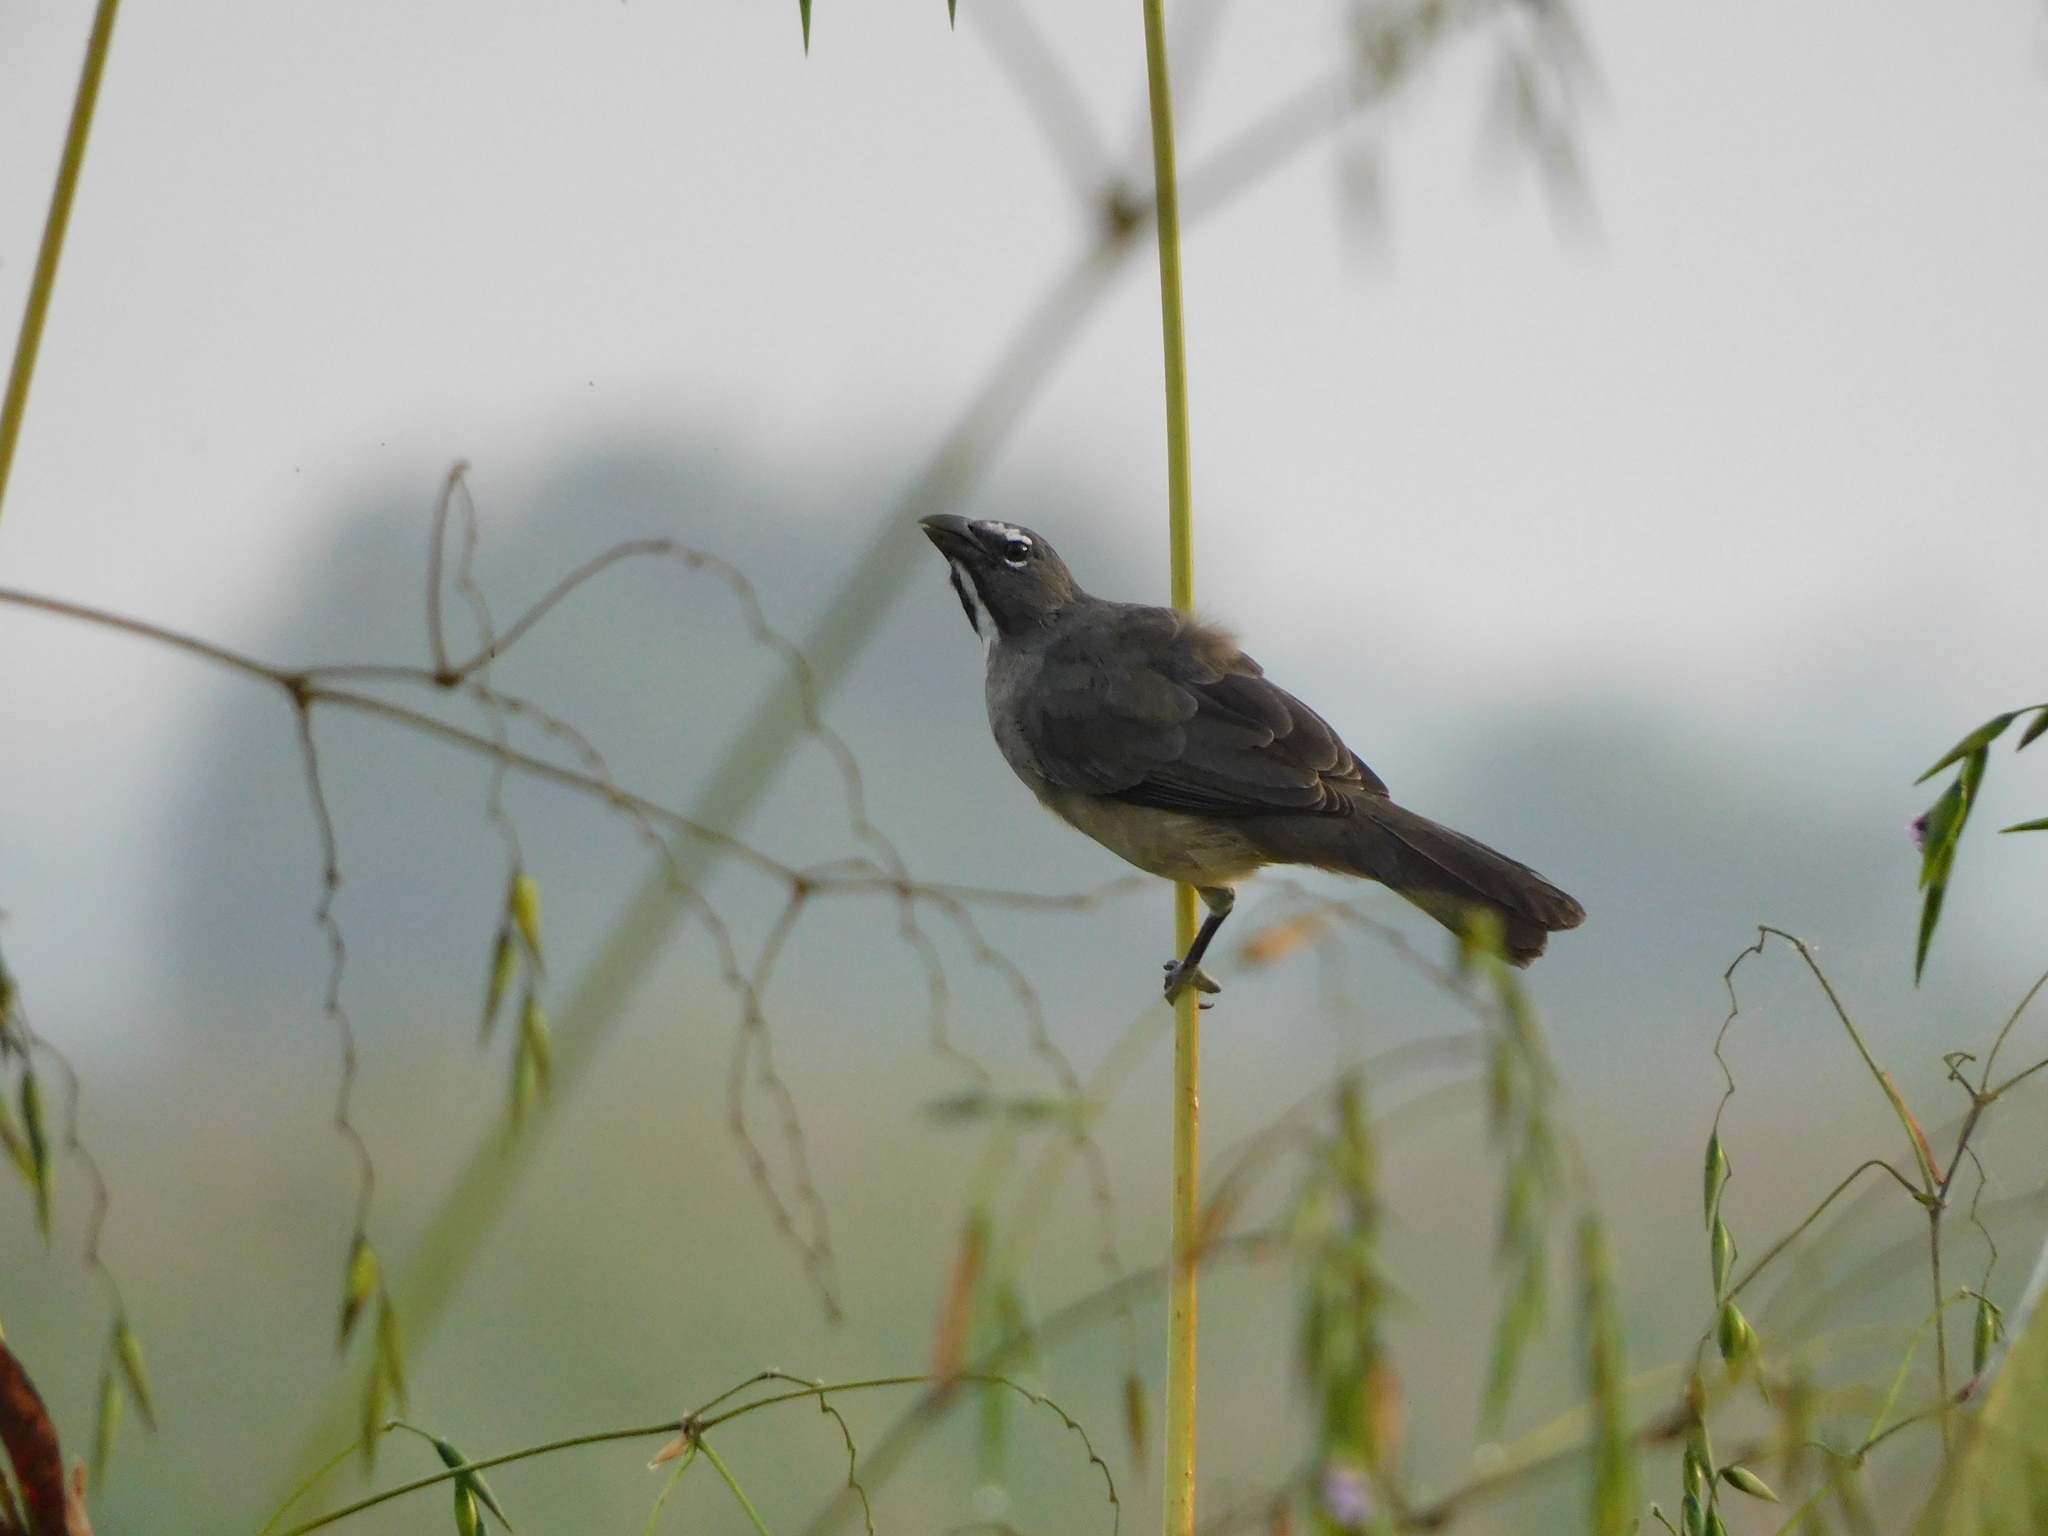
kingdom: Animalia
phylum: Chordata
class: Aves
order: Passeriformes
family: Thraupidae
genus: Saltator
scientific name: Saltator olivascens
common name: Caribbean grey saltator
